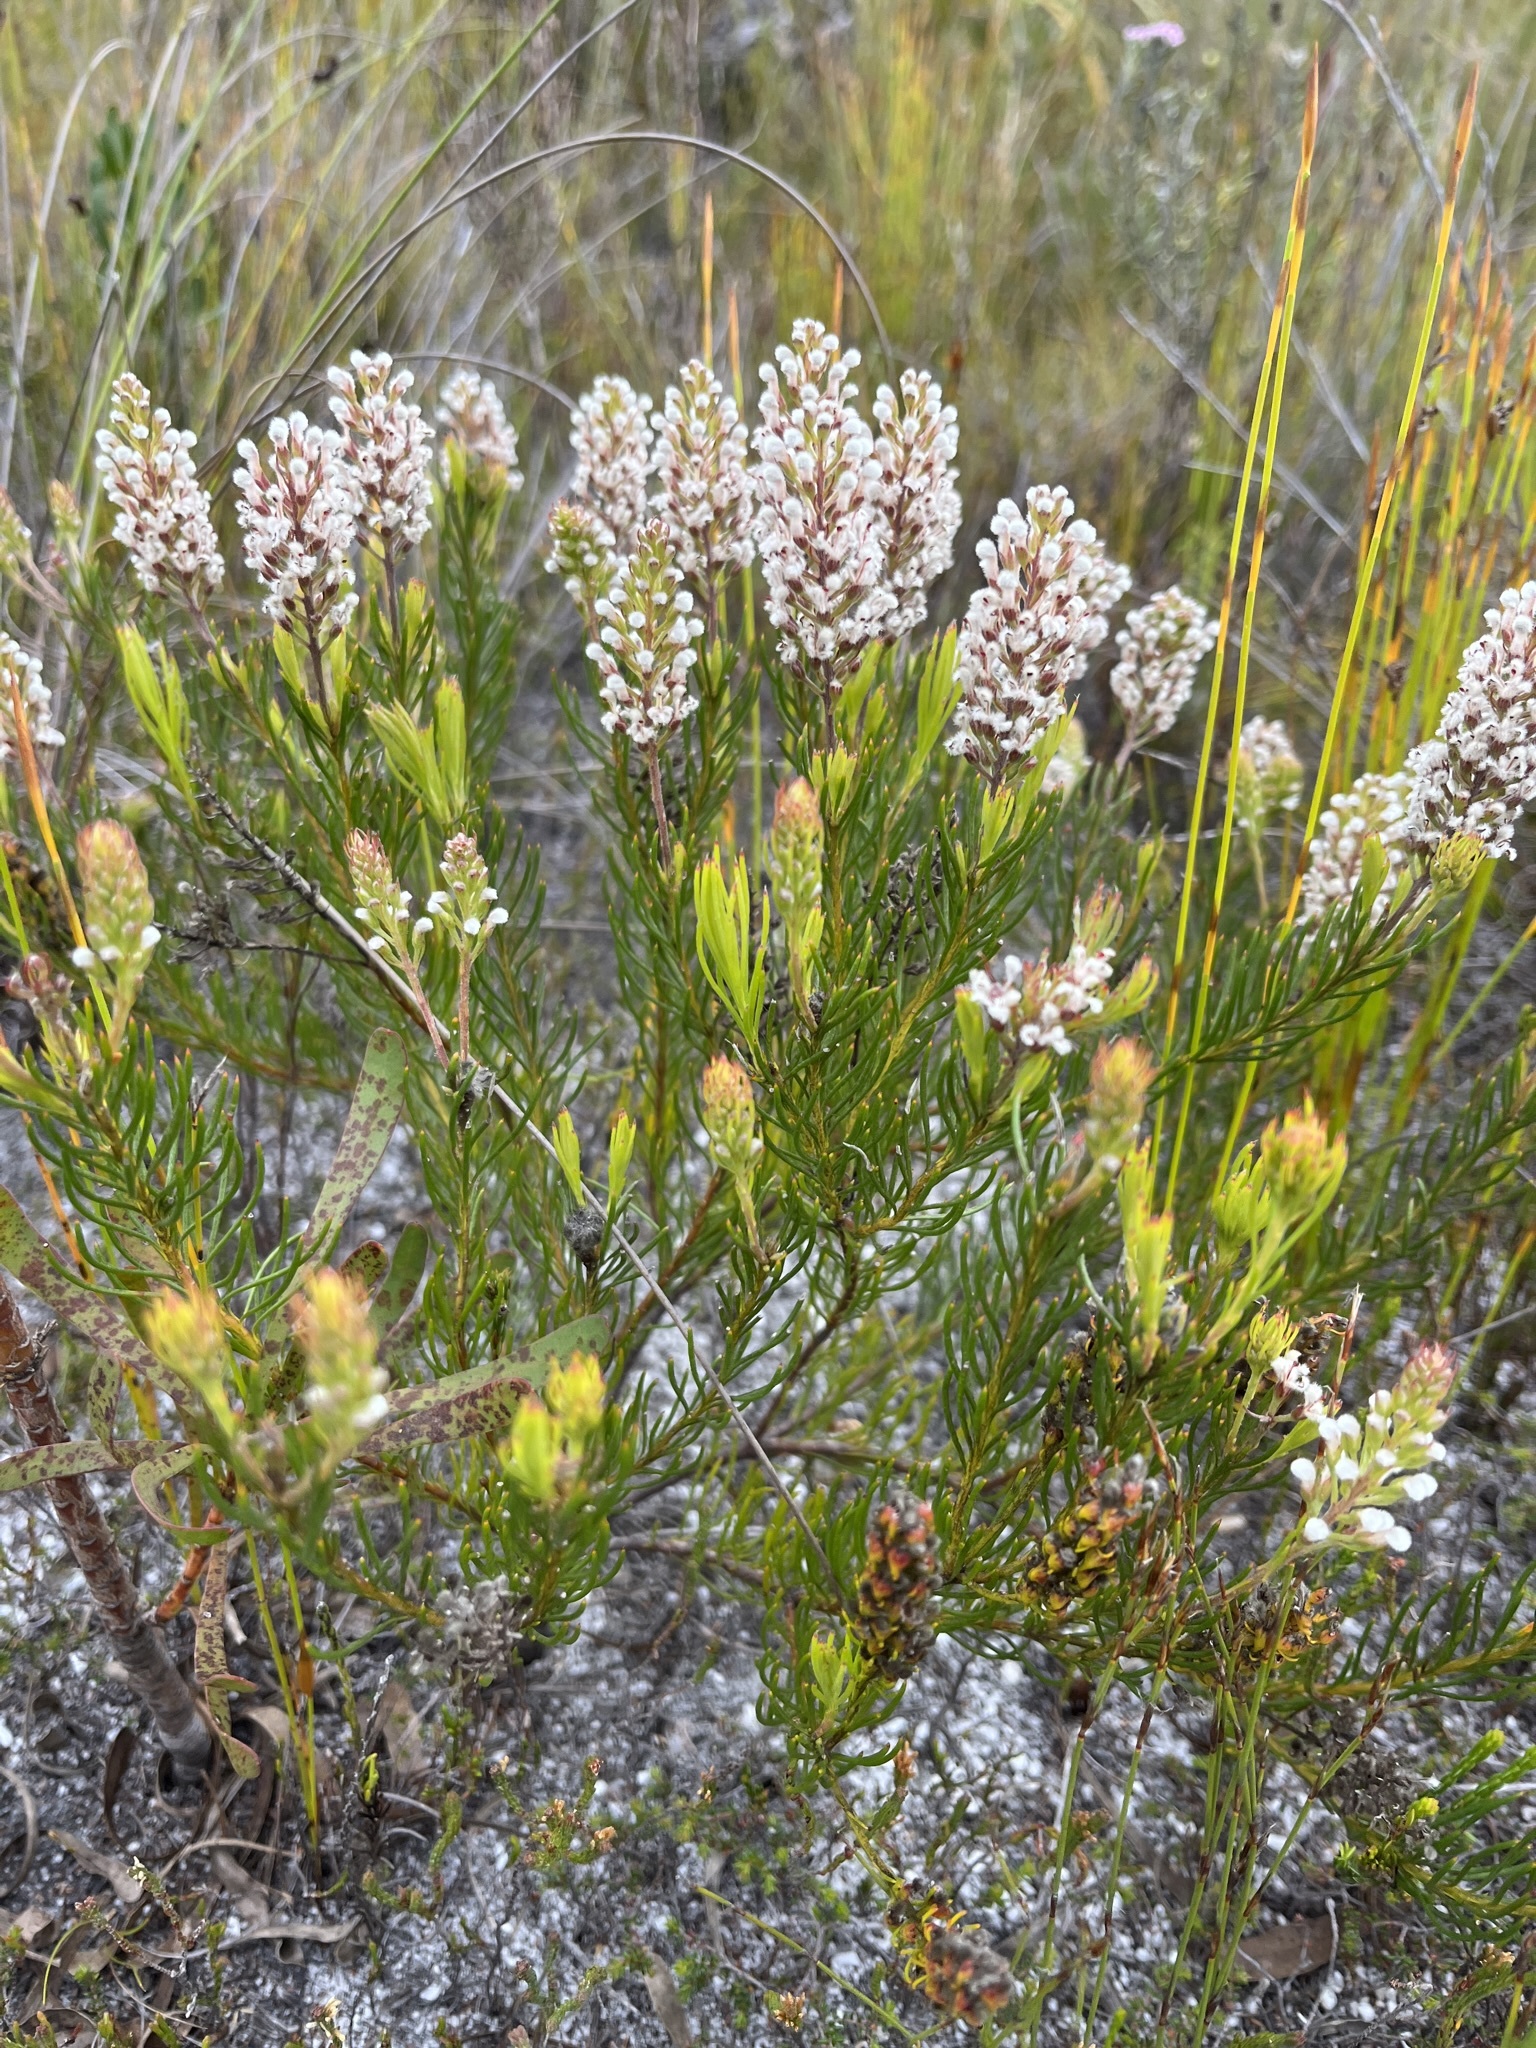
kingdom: Plantae
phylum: Tracheophyta
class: Magnoliopsida
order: Proteales
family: Proteaceae
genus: Spatalla
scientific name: Spatalla curvifolia
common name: White-stalked spoon
